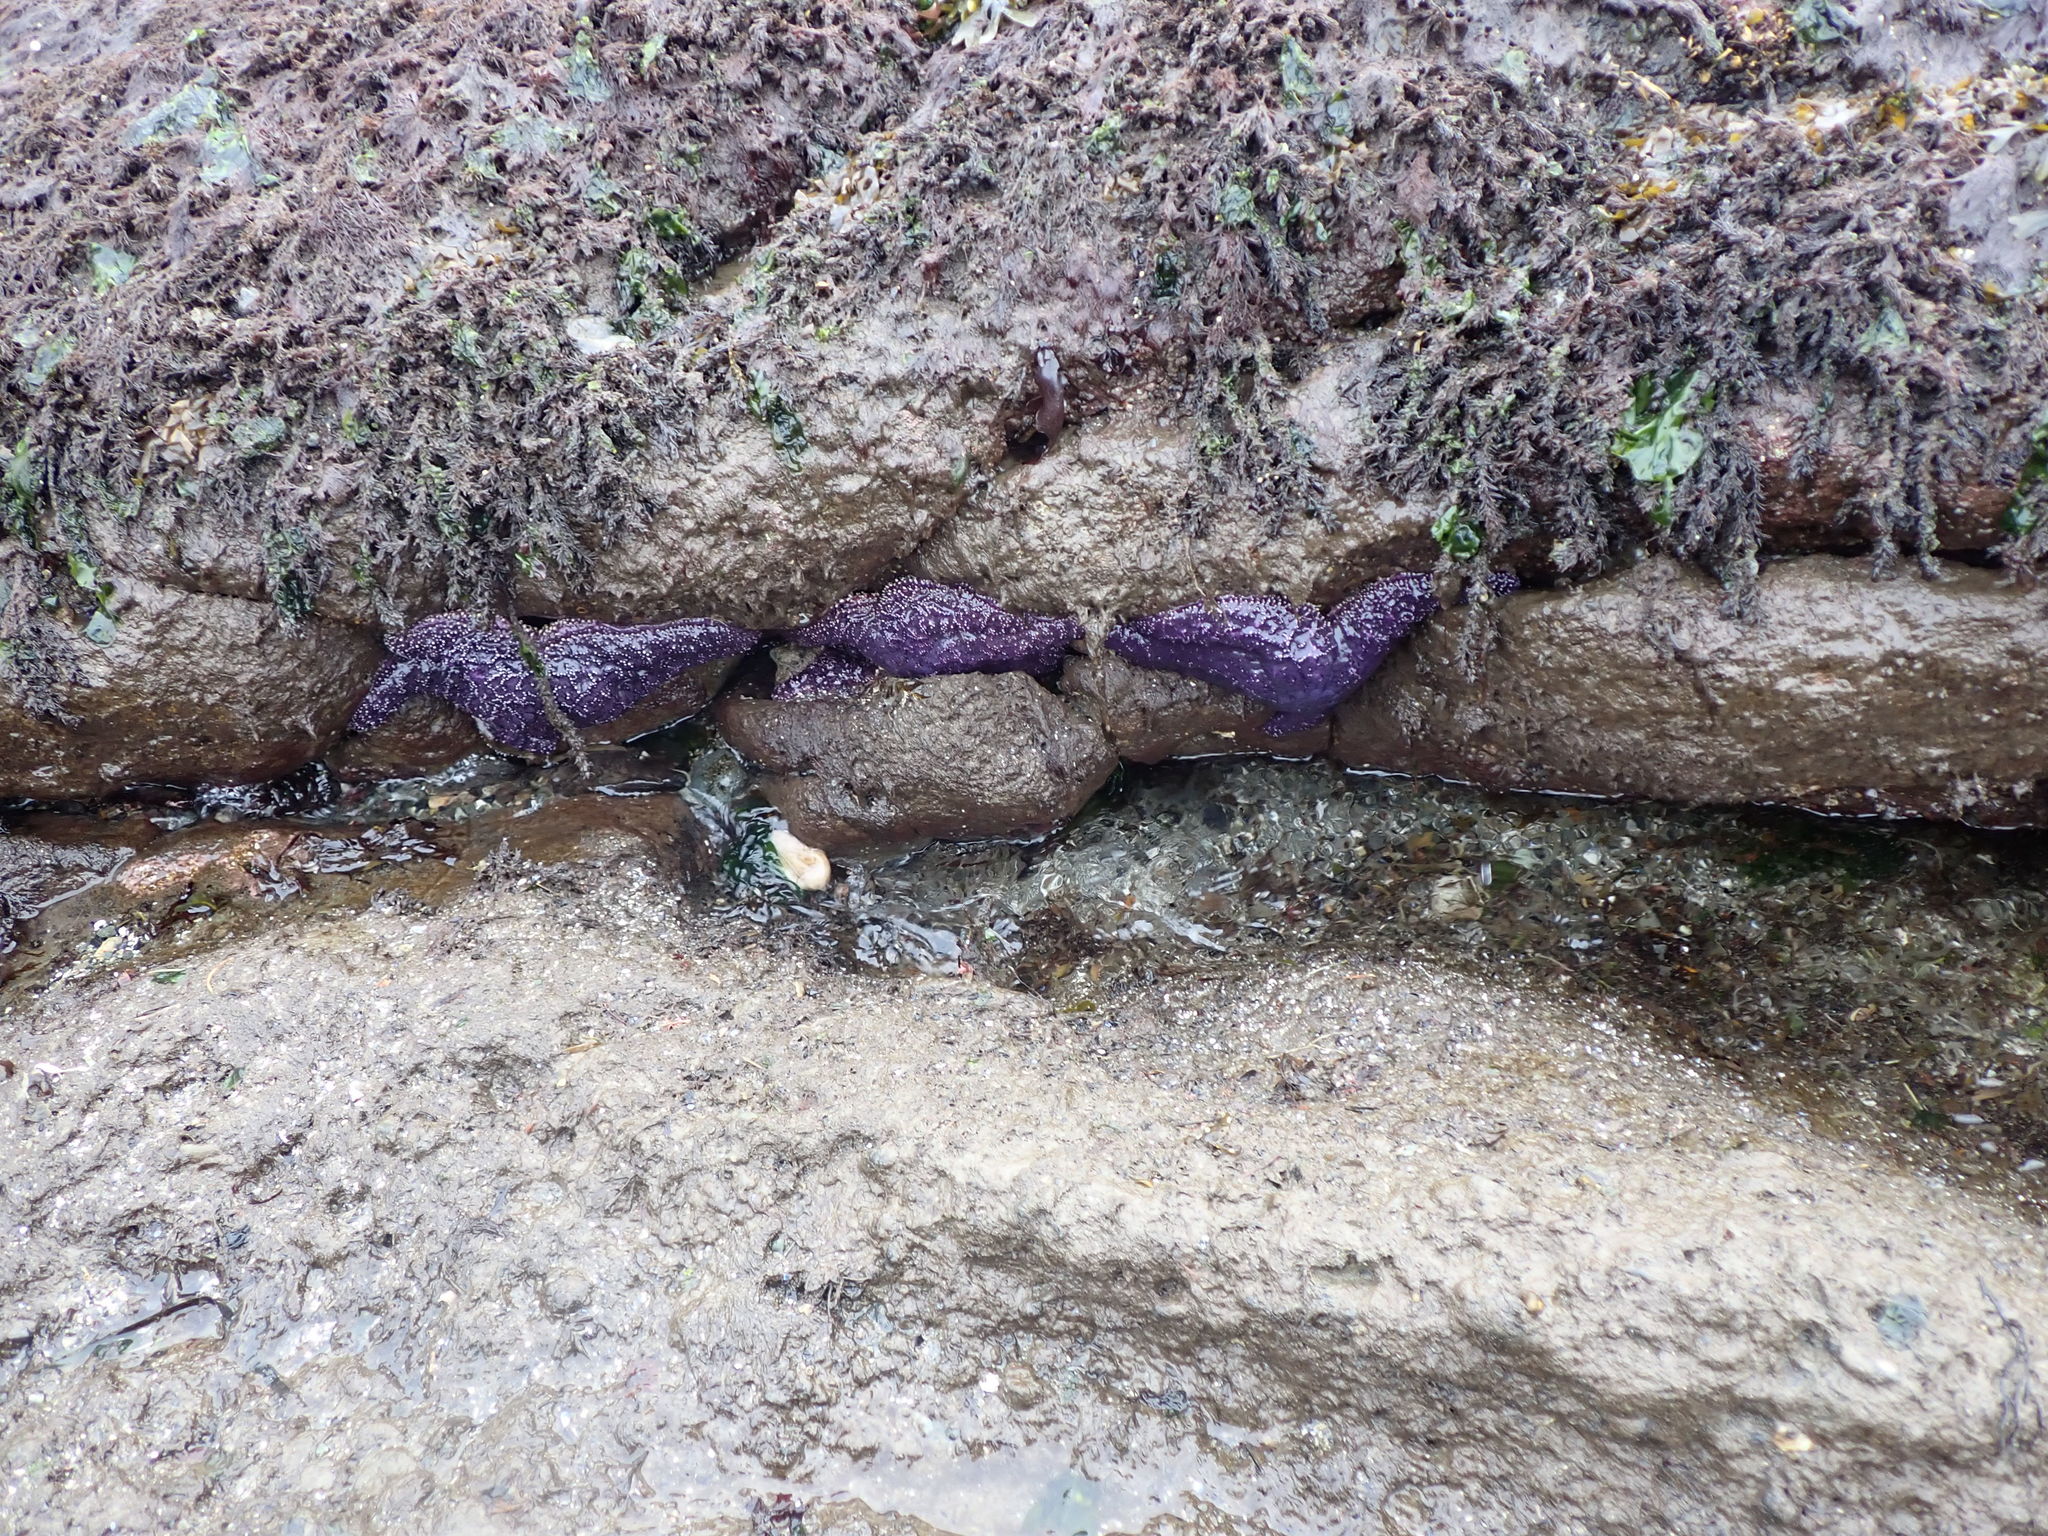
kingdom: Animalia
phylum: Echinodermata
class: Asteroidea
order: Forcipulatida
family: Asteriidae
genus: Pisaster
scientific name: Pisaster ochraceus
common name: Ochre stars
